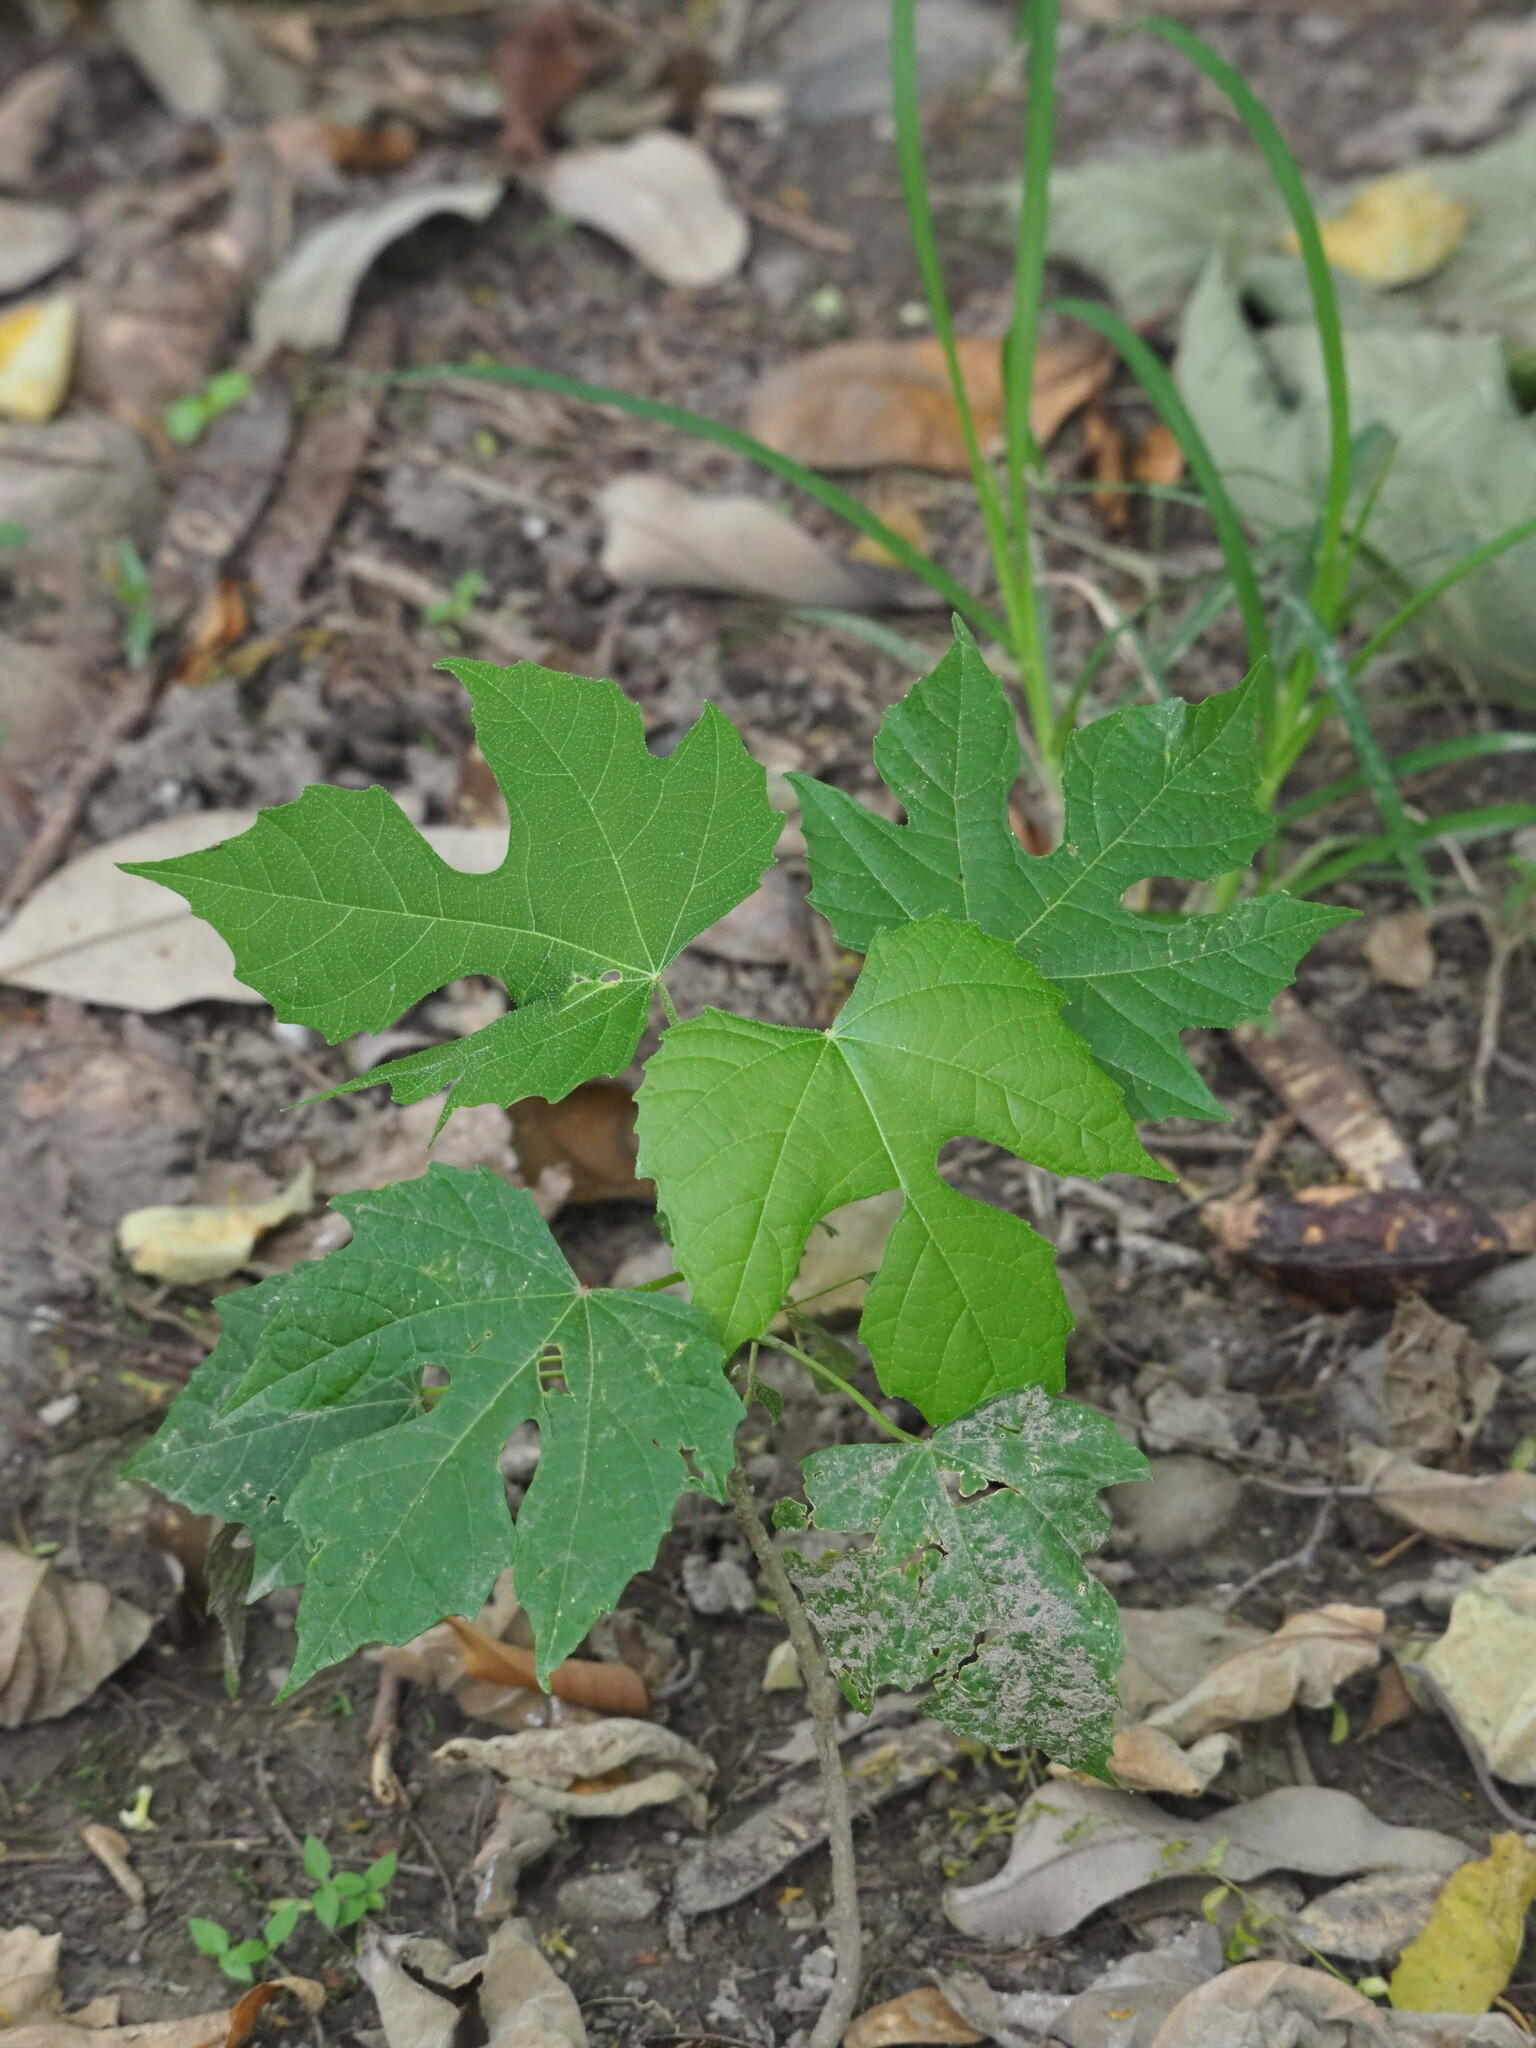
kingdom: Plantae
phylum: Tracheophyta
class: Magnoliopsida
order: Malpighiales
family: Euphorbiaceae
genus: Melanolepis
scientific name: Melanolepis multiglandulosa
